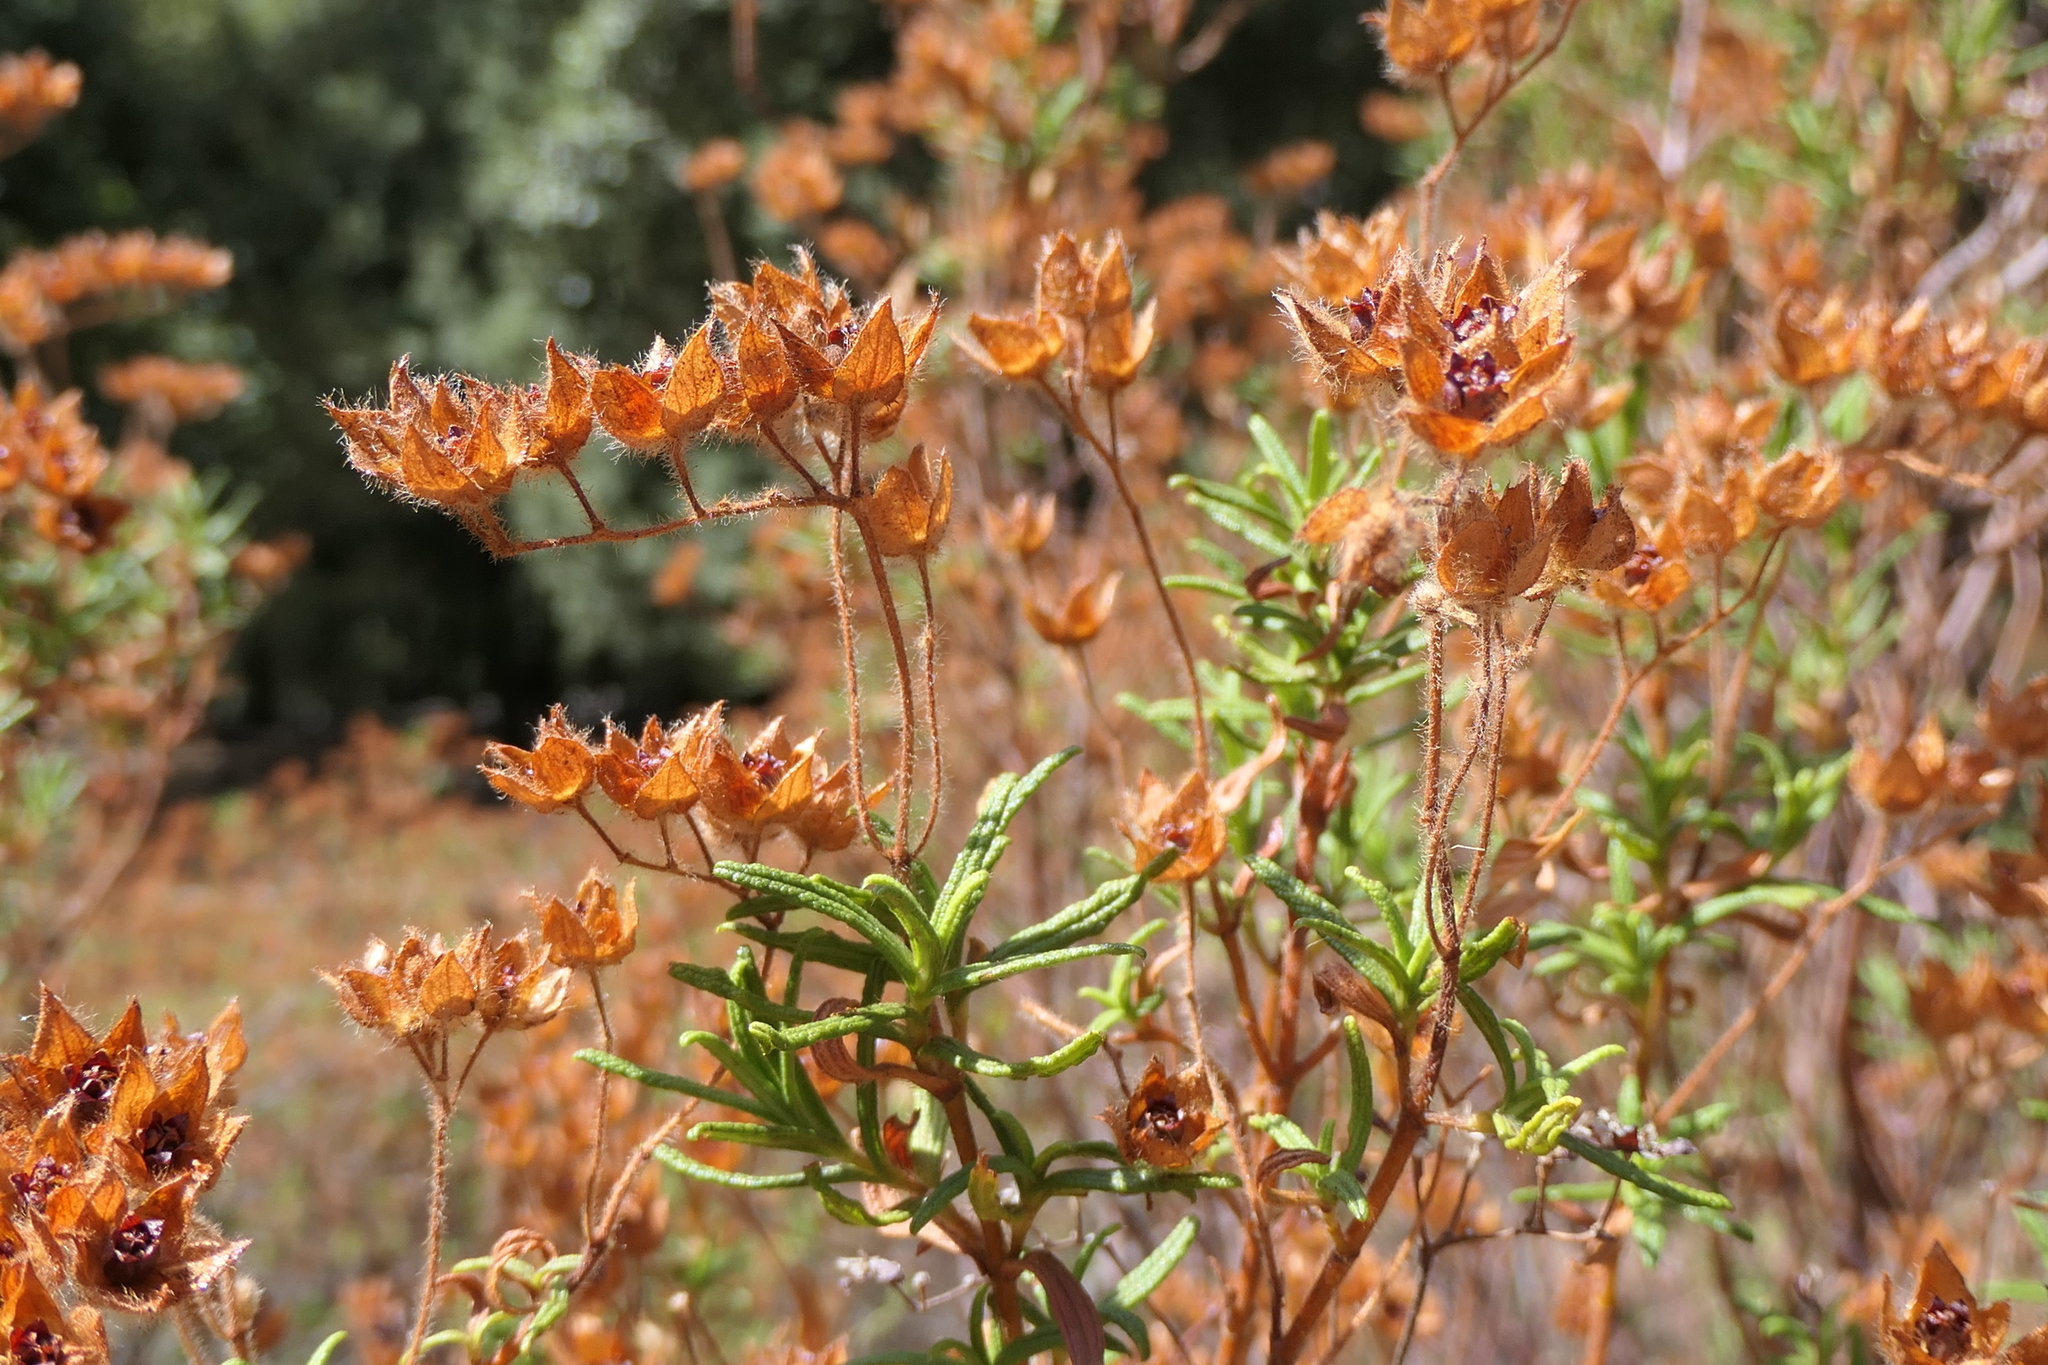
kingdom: Plantae
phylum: Tracheophyta
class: Magnoliopsida
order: Malvales
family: Cistaceae
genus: Cistus
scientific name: Cistus monspeliensis
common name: Montpelier cistus
